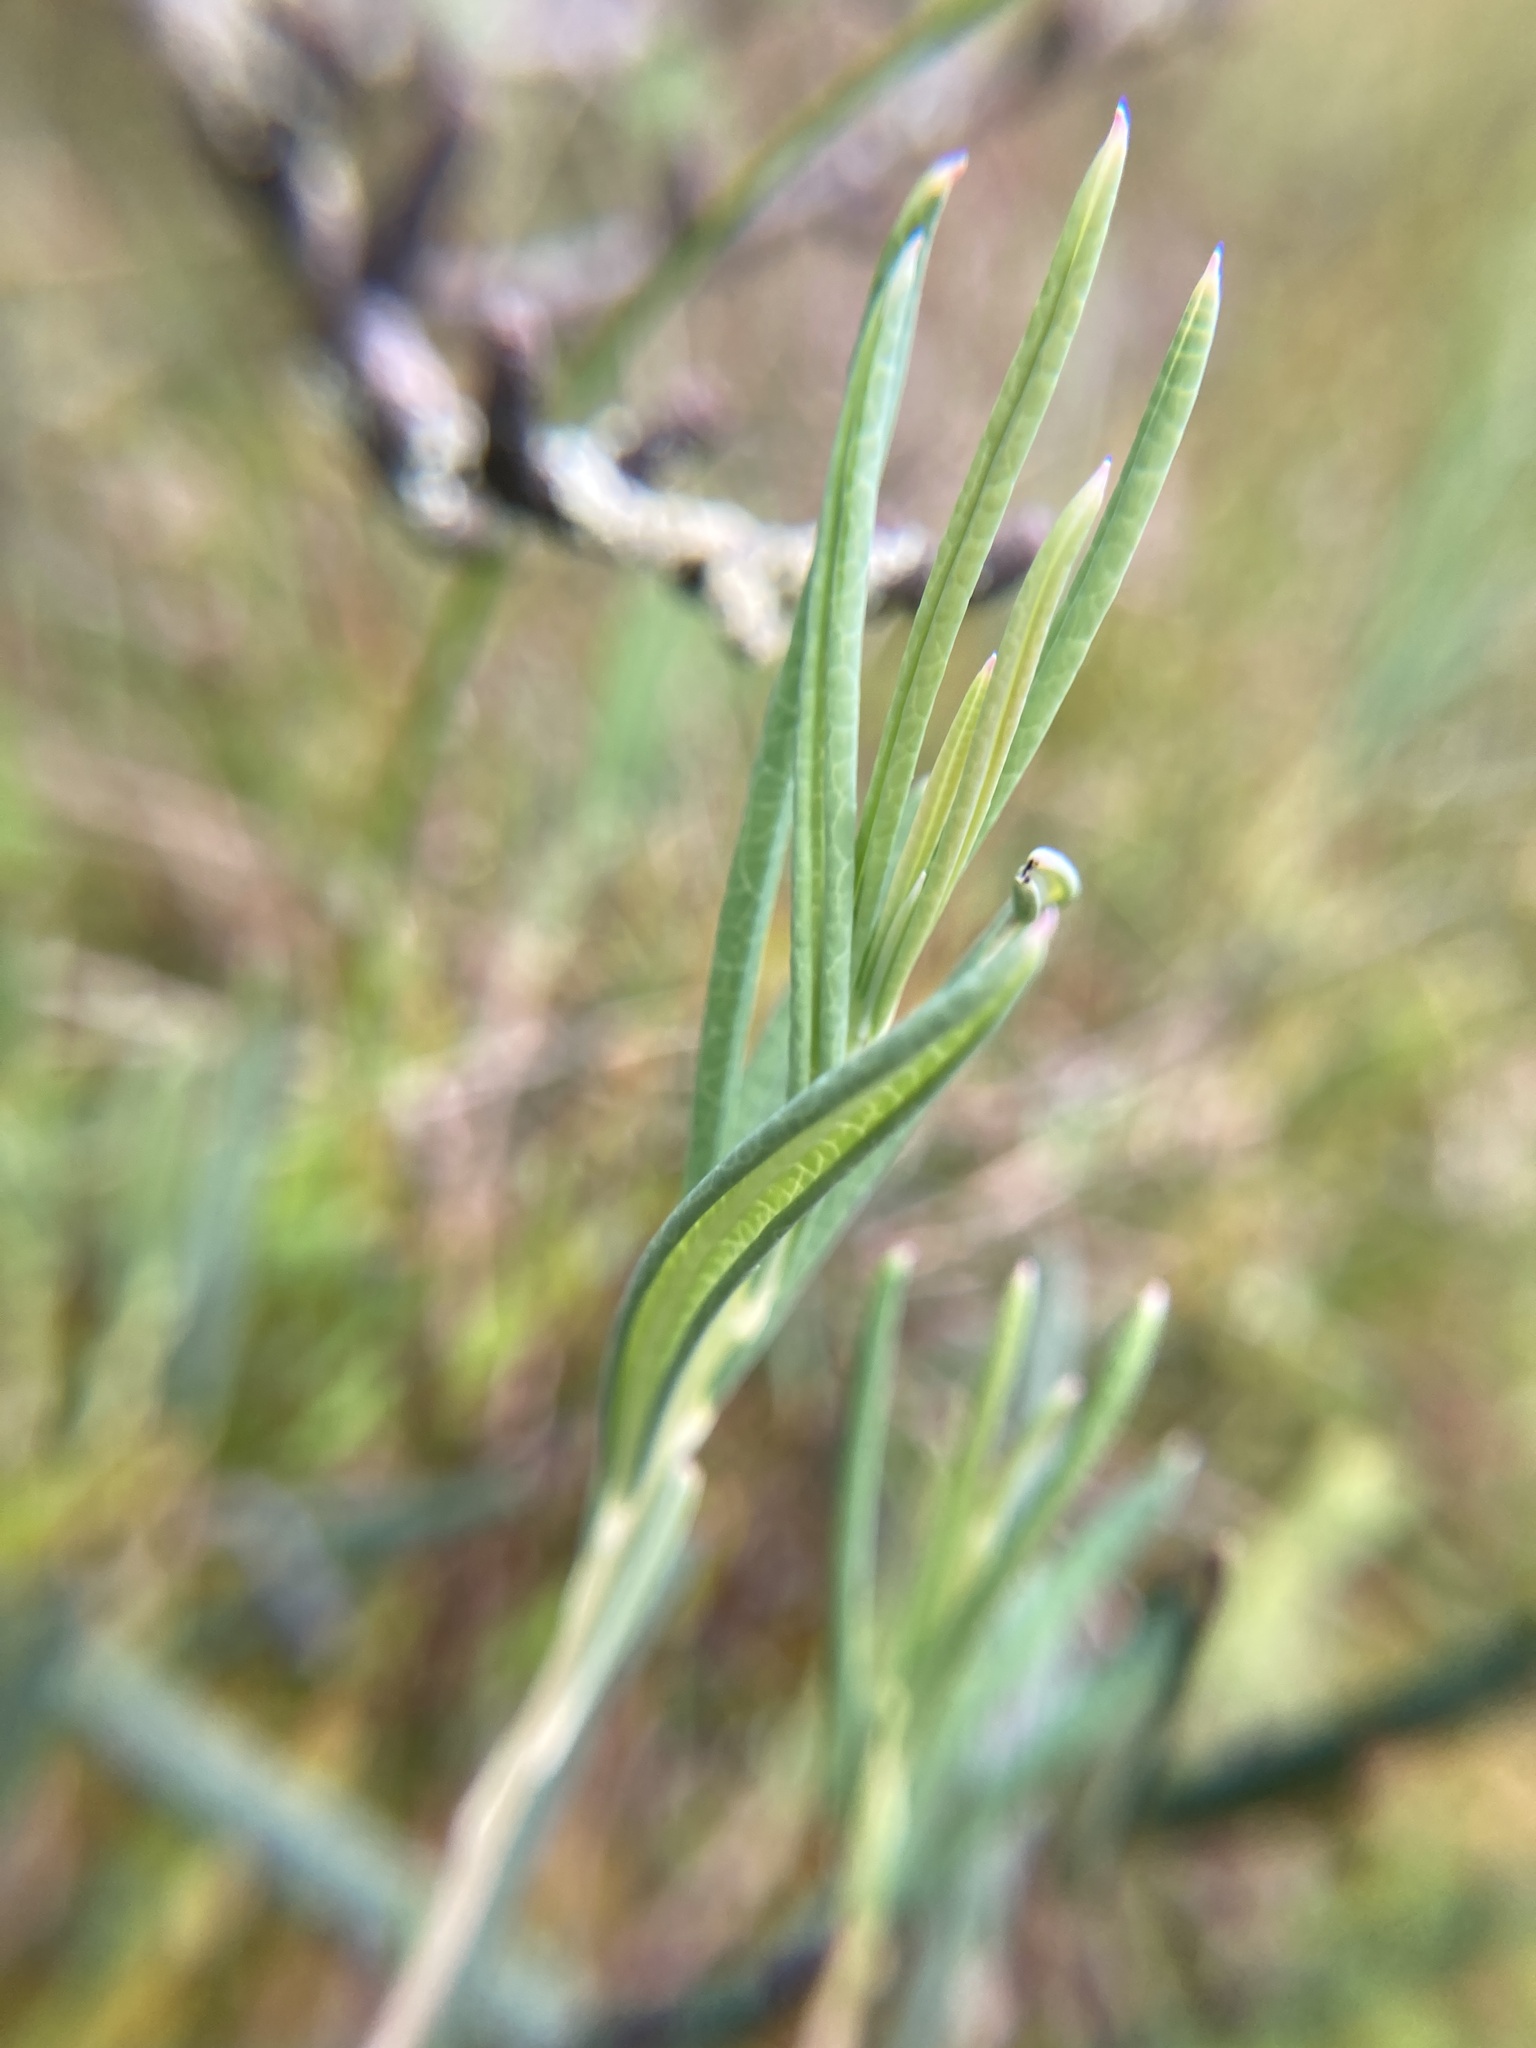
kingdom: Plantae
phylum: Tracheophyta
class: Magnoliopsida
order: Ericales
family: Ericaceae
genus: Andromeda
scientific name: Andromeda polifolia
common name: Bog-rosemary
